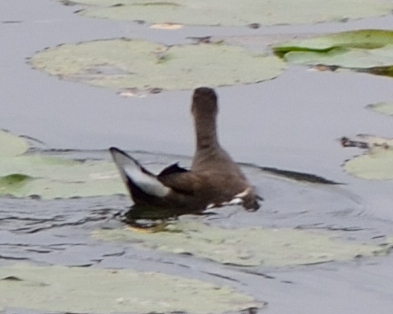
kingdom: Animalia
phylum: Chordata
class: Aves
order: Gruiformes
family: Rallidae
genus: Gallinula
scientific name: Gallinula chloropus
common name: Common moorhen
